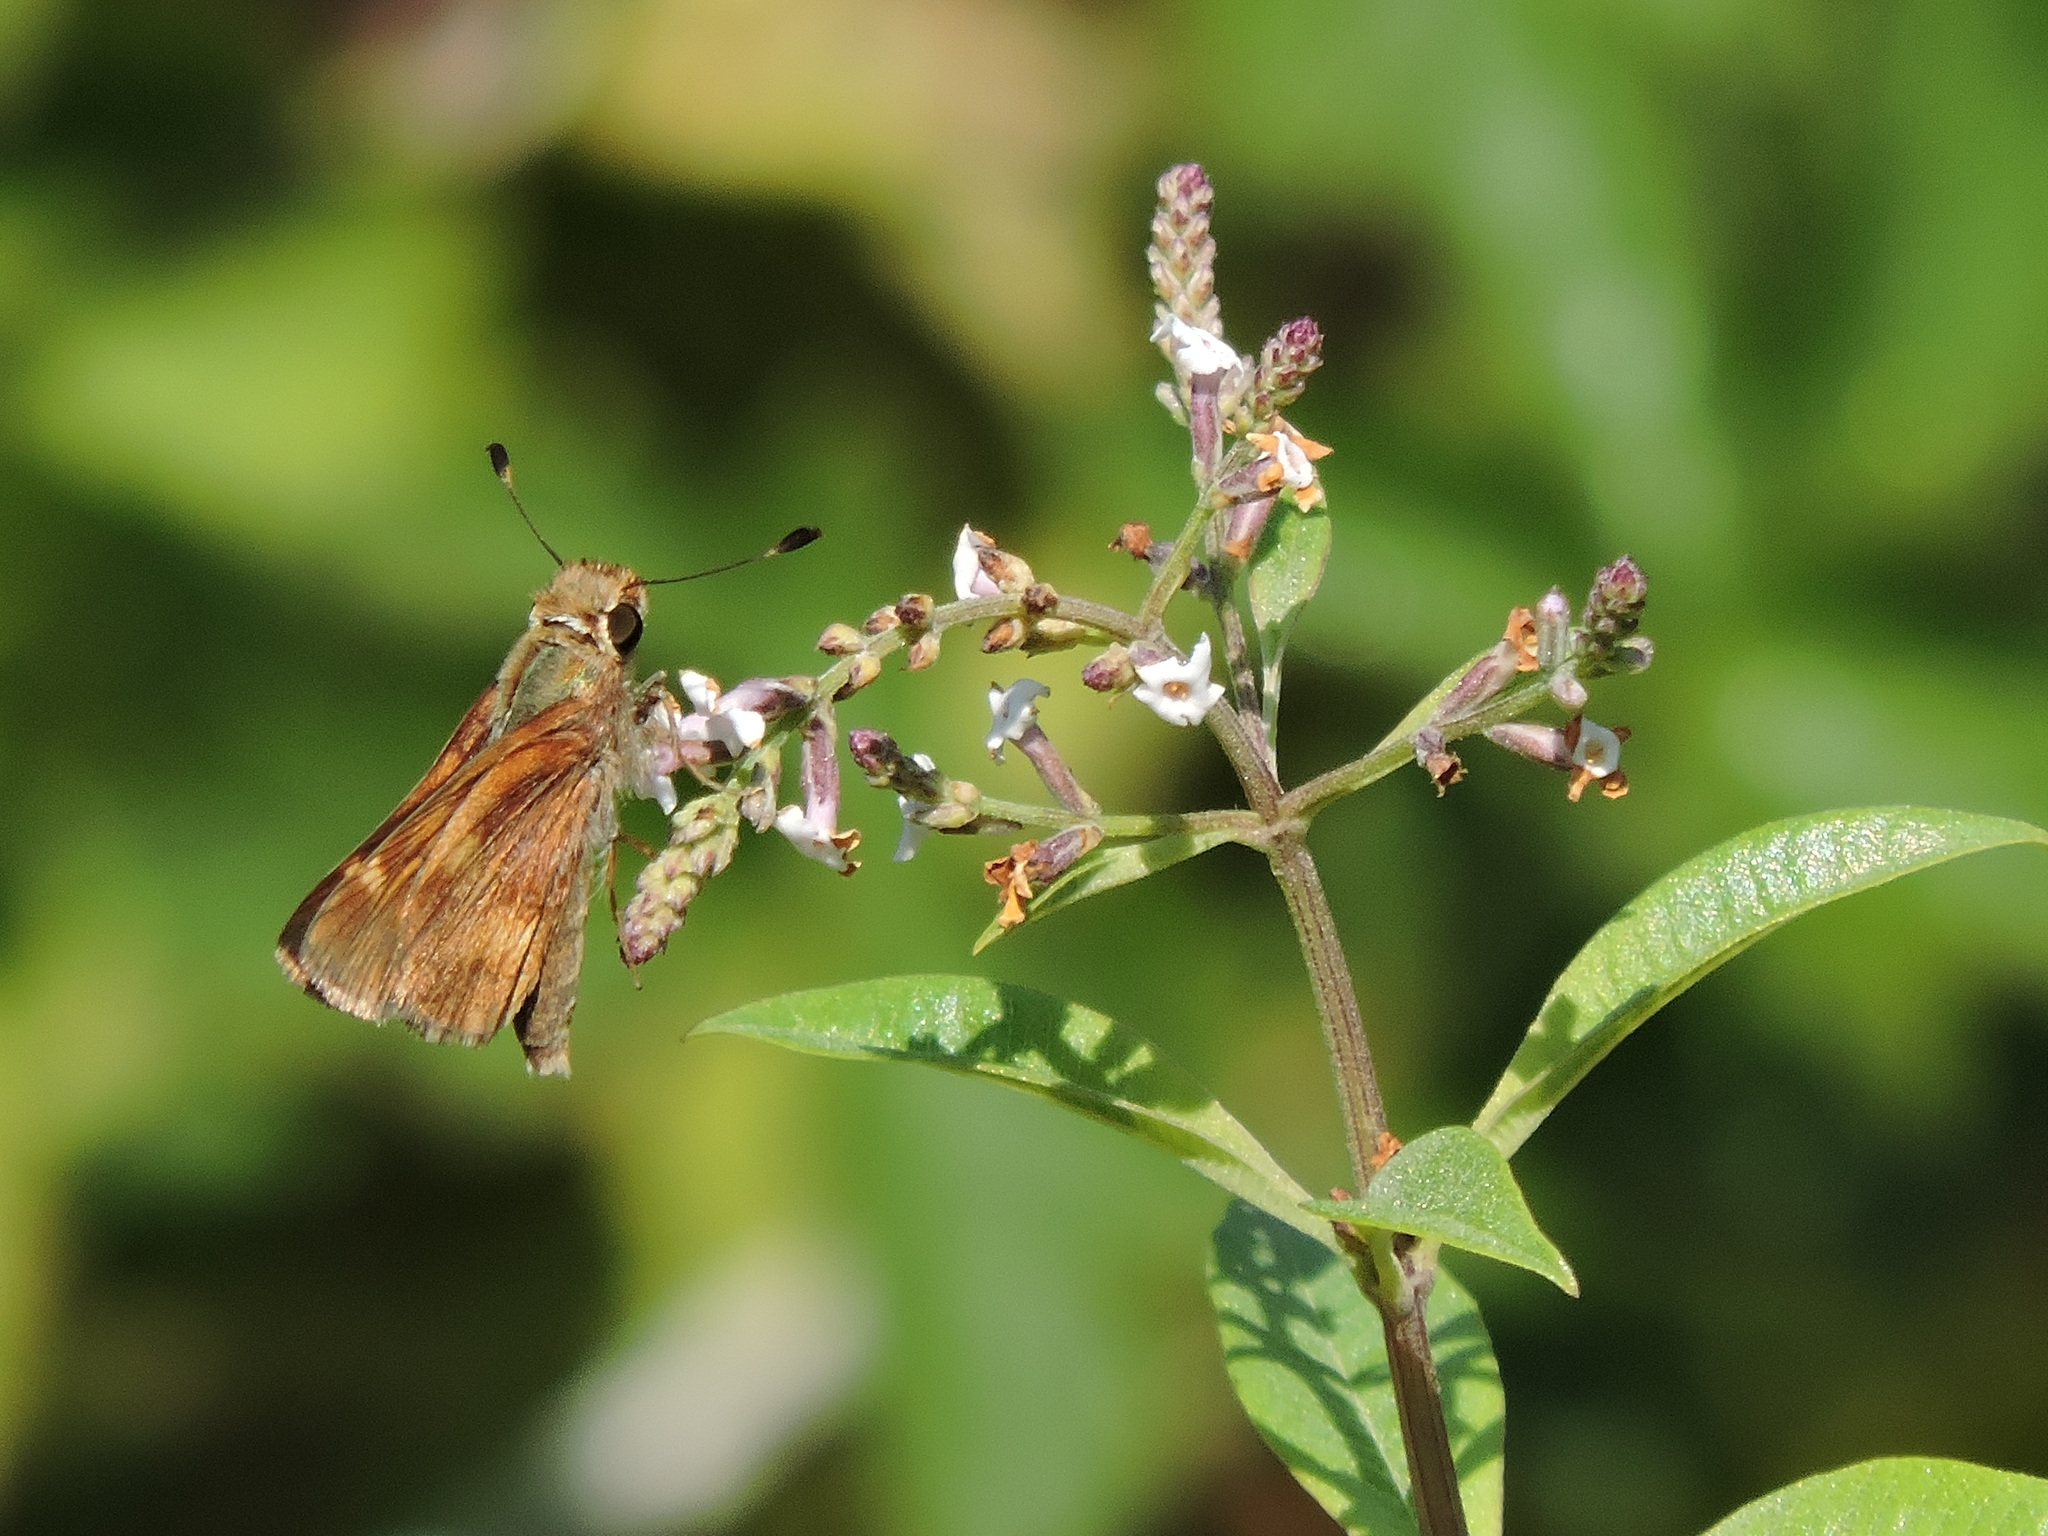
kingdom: Animalia
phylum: Arthropoda
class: Insecta
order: Lepidoptera
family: Hesperiidae
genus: Lon
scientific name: Lon melane
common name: Umber skipper
